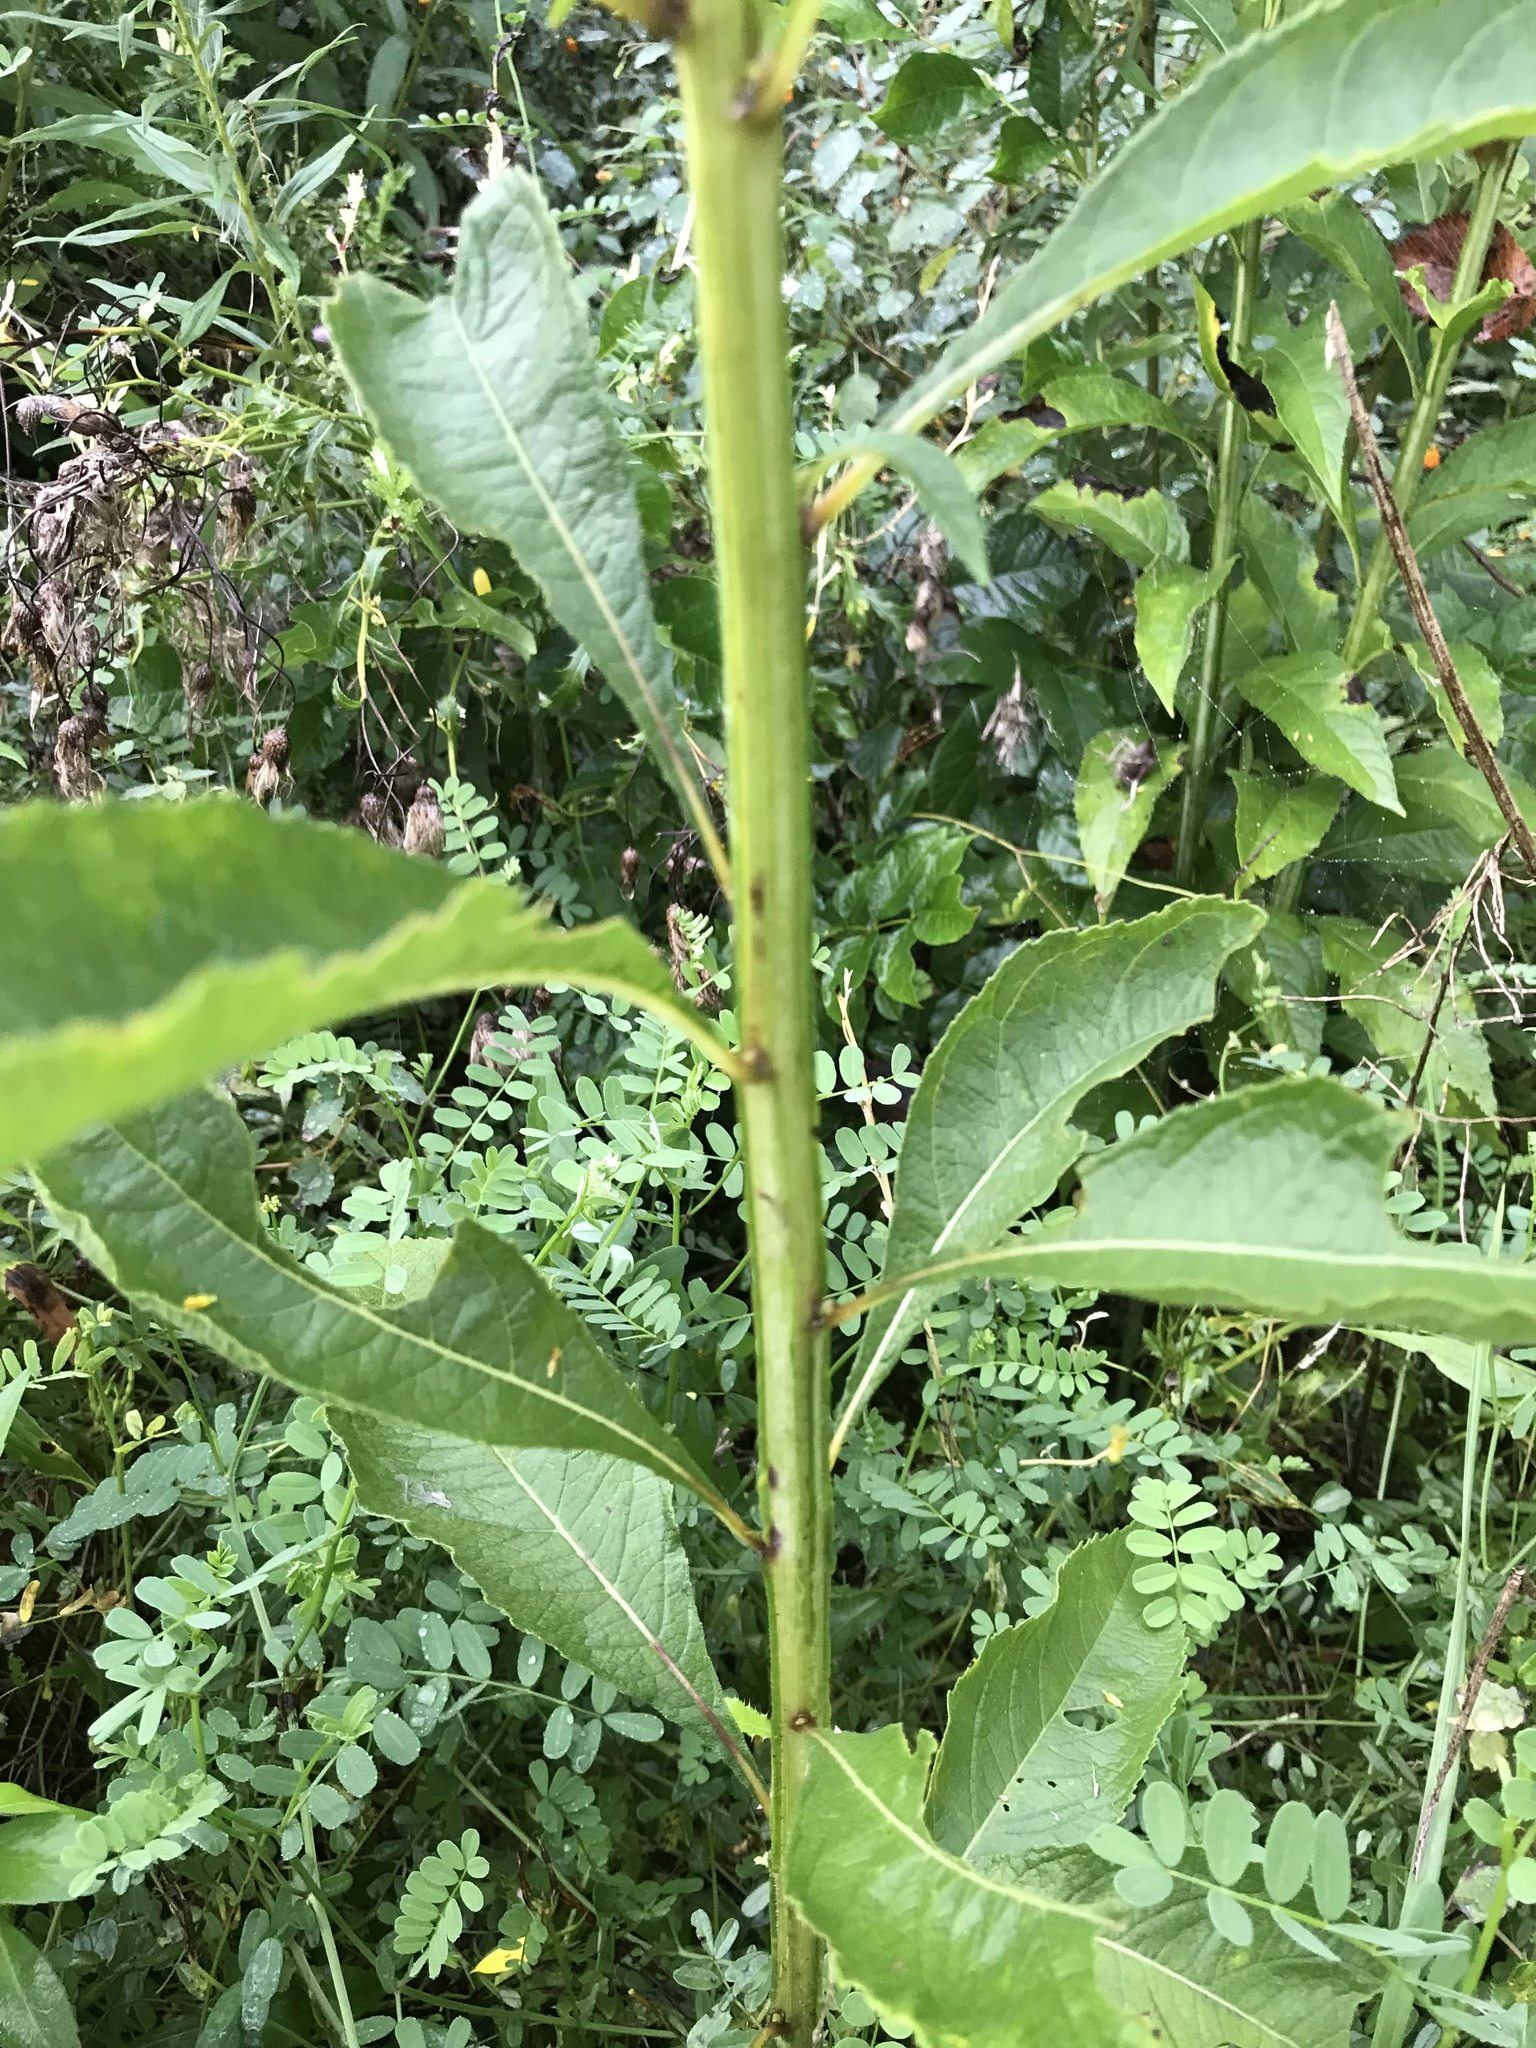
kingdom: Plantae
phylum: Tracheophyta
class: Magnoliopsida
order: Asterales
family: Asteraceae
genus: Verbesina
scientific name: Verbesina alternifolia
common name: Wingstem
